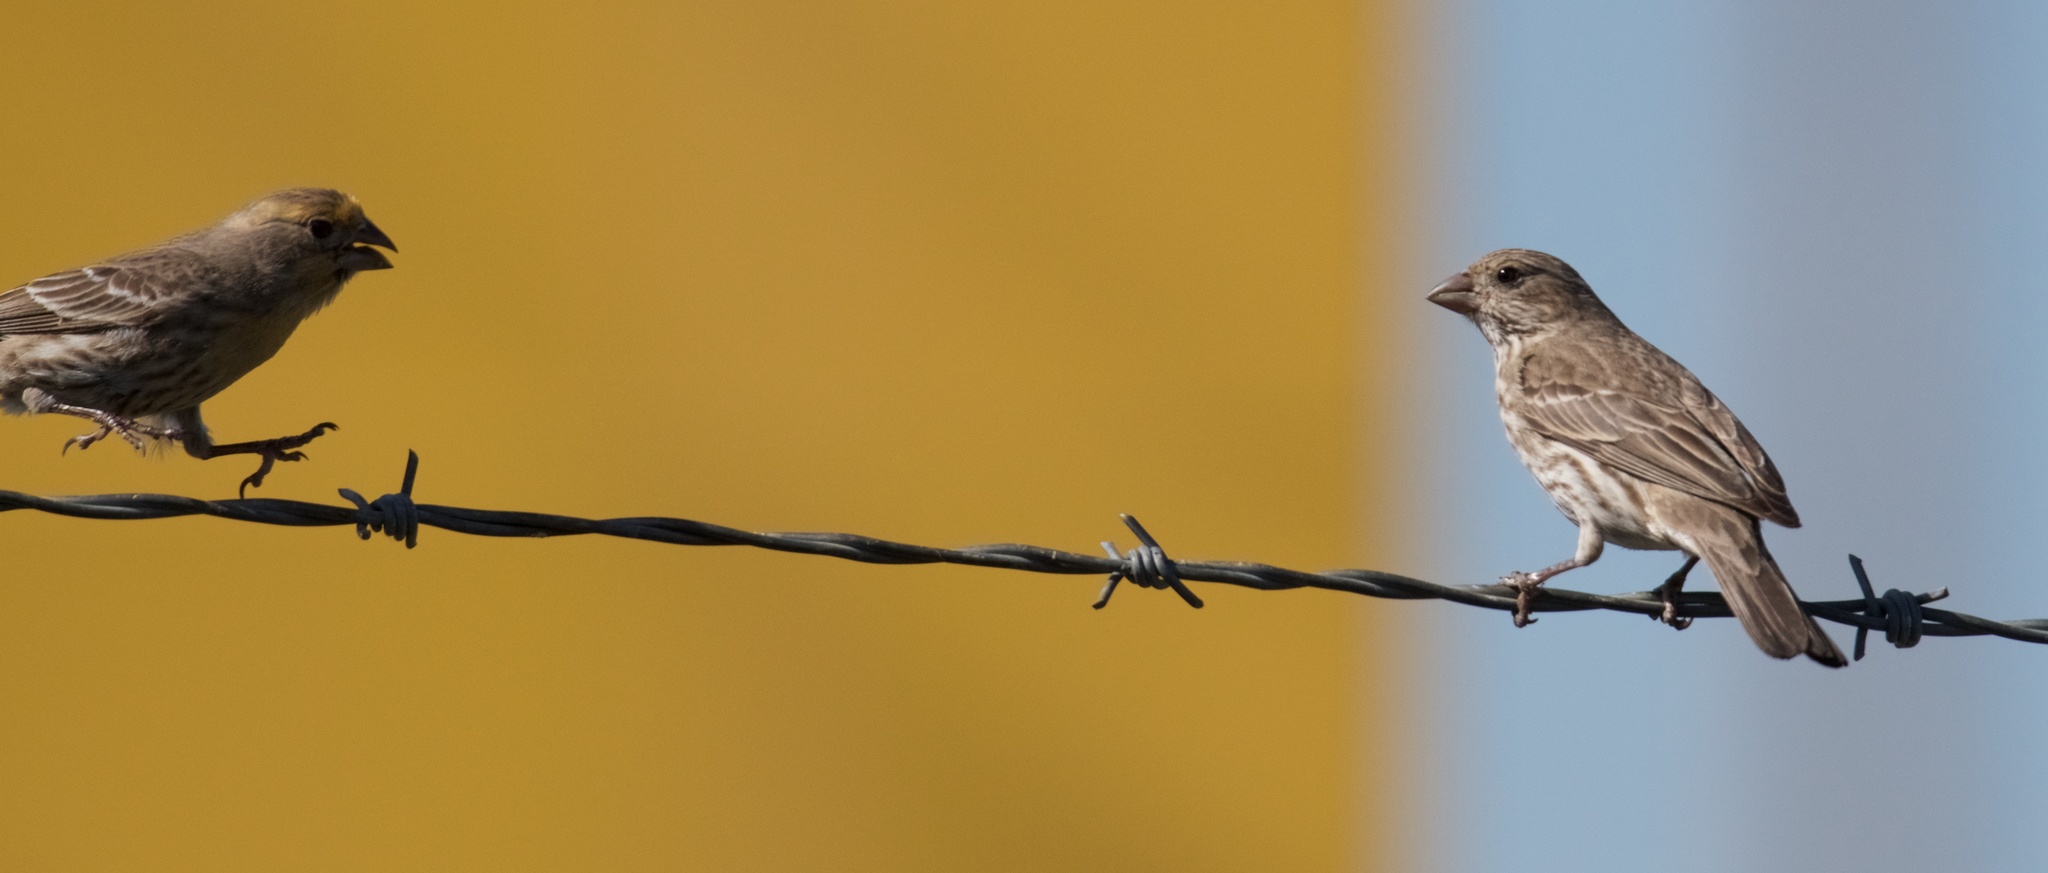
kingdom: Animalia
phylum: Chordata
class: Aves
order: Passeriformes
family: Fringillidae
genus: Haemorhous
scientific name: Haemorhous mexicanus
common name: House finch
